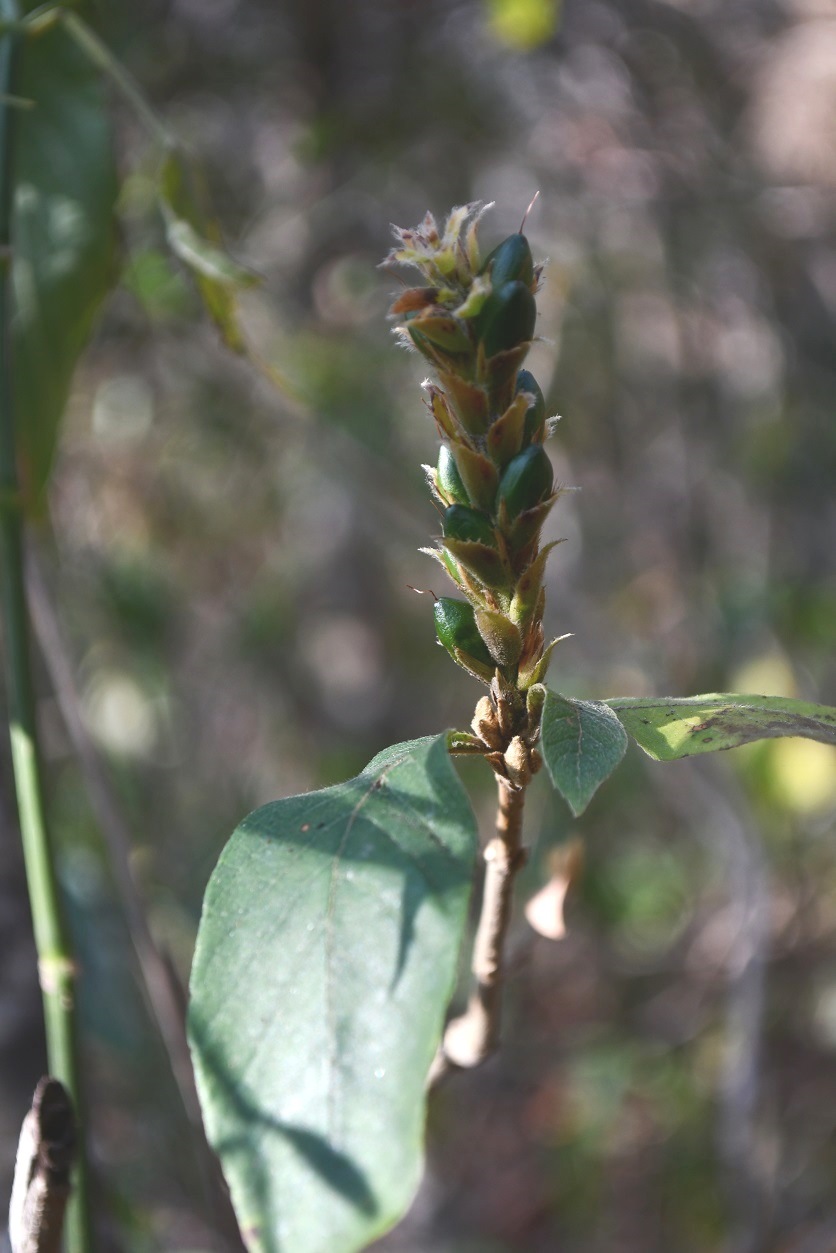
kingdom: Plantae
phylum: Tracheophyta
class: Magnoliopsida
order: Lamiales
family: Acanthaceae
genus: Aphelandra
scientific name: Aphelandra scabra
